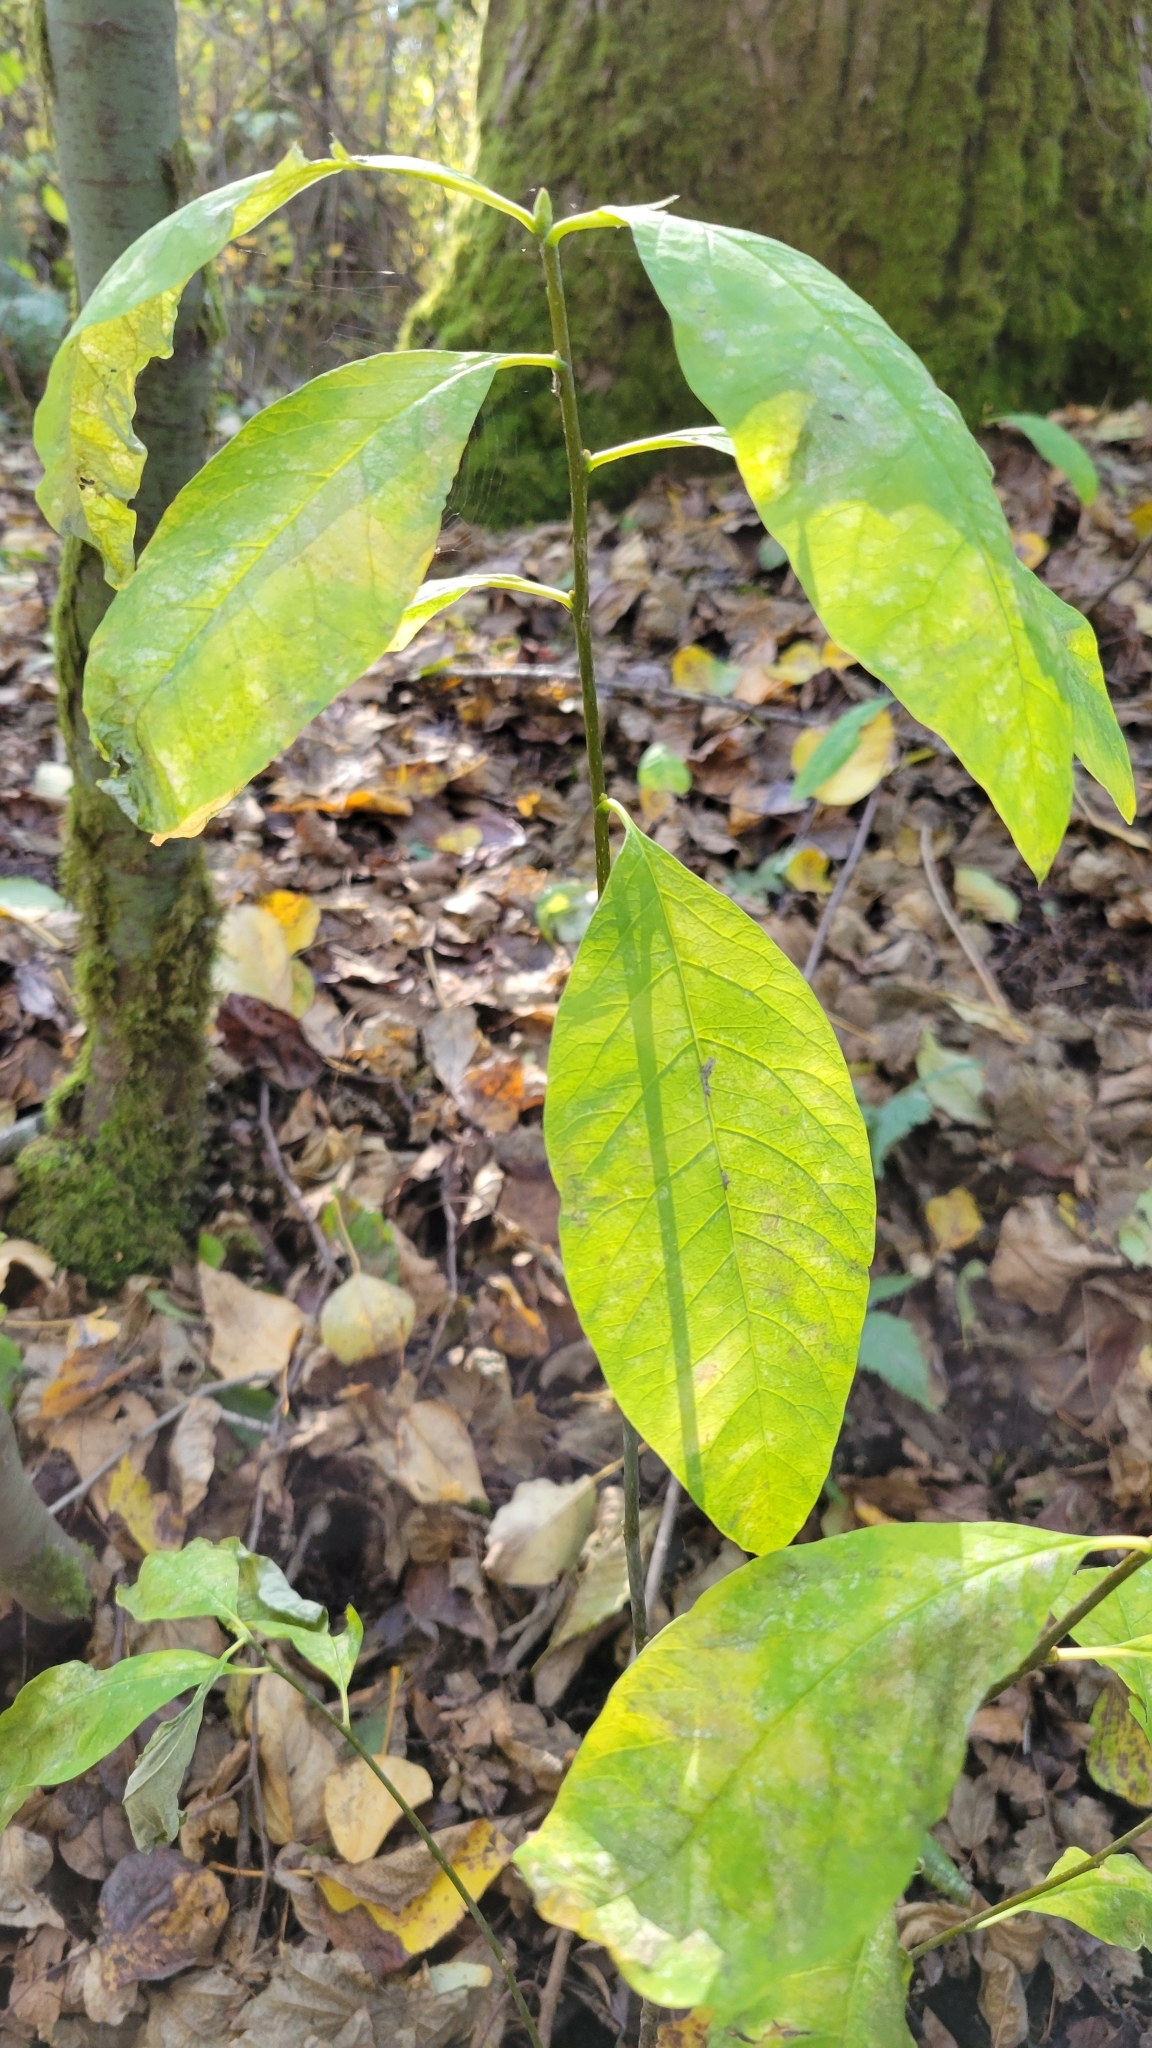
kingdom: Plantae
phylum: Tracheophyta
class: Magnoliopsida
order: Rosales
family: Rosaceae
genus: Oemleria
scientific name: Oemleria cerasiformis
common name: Osoberry
